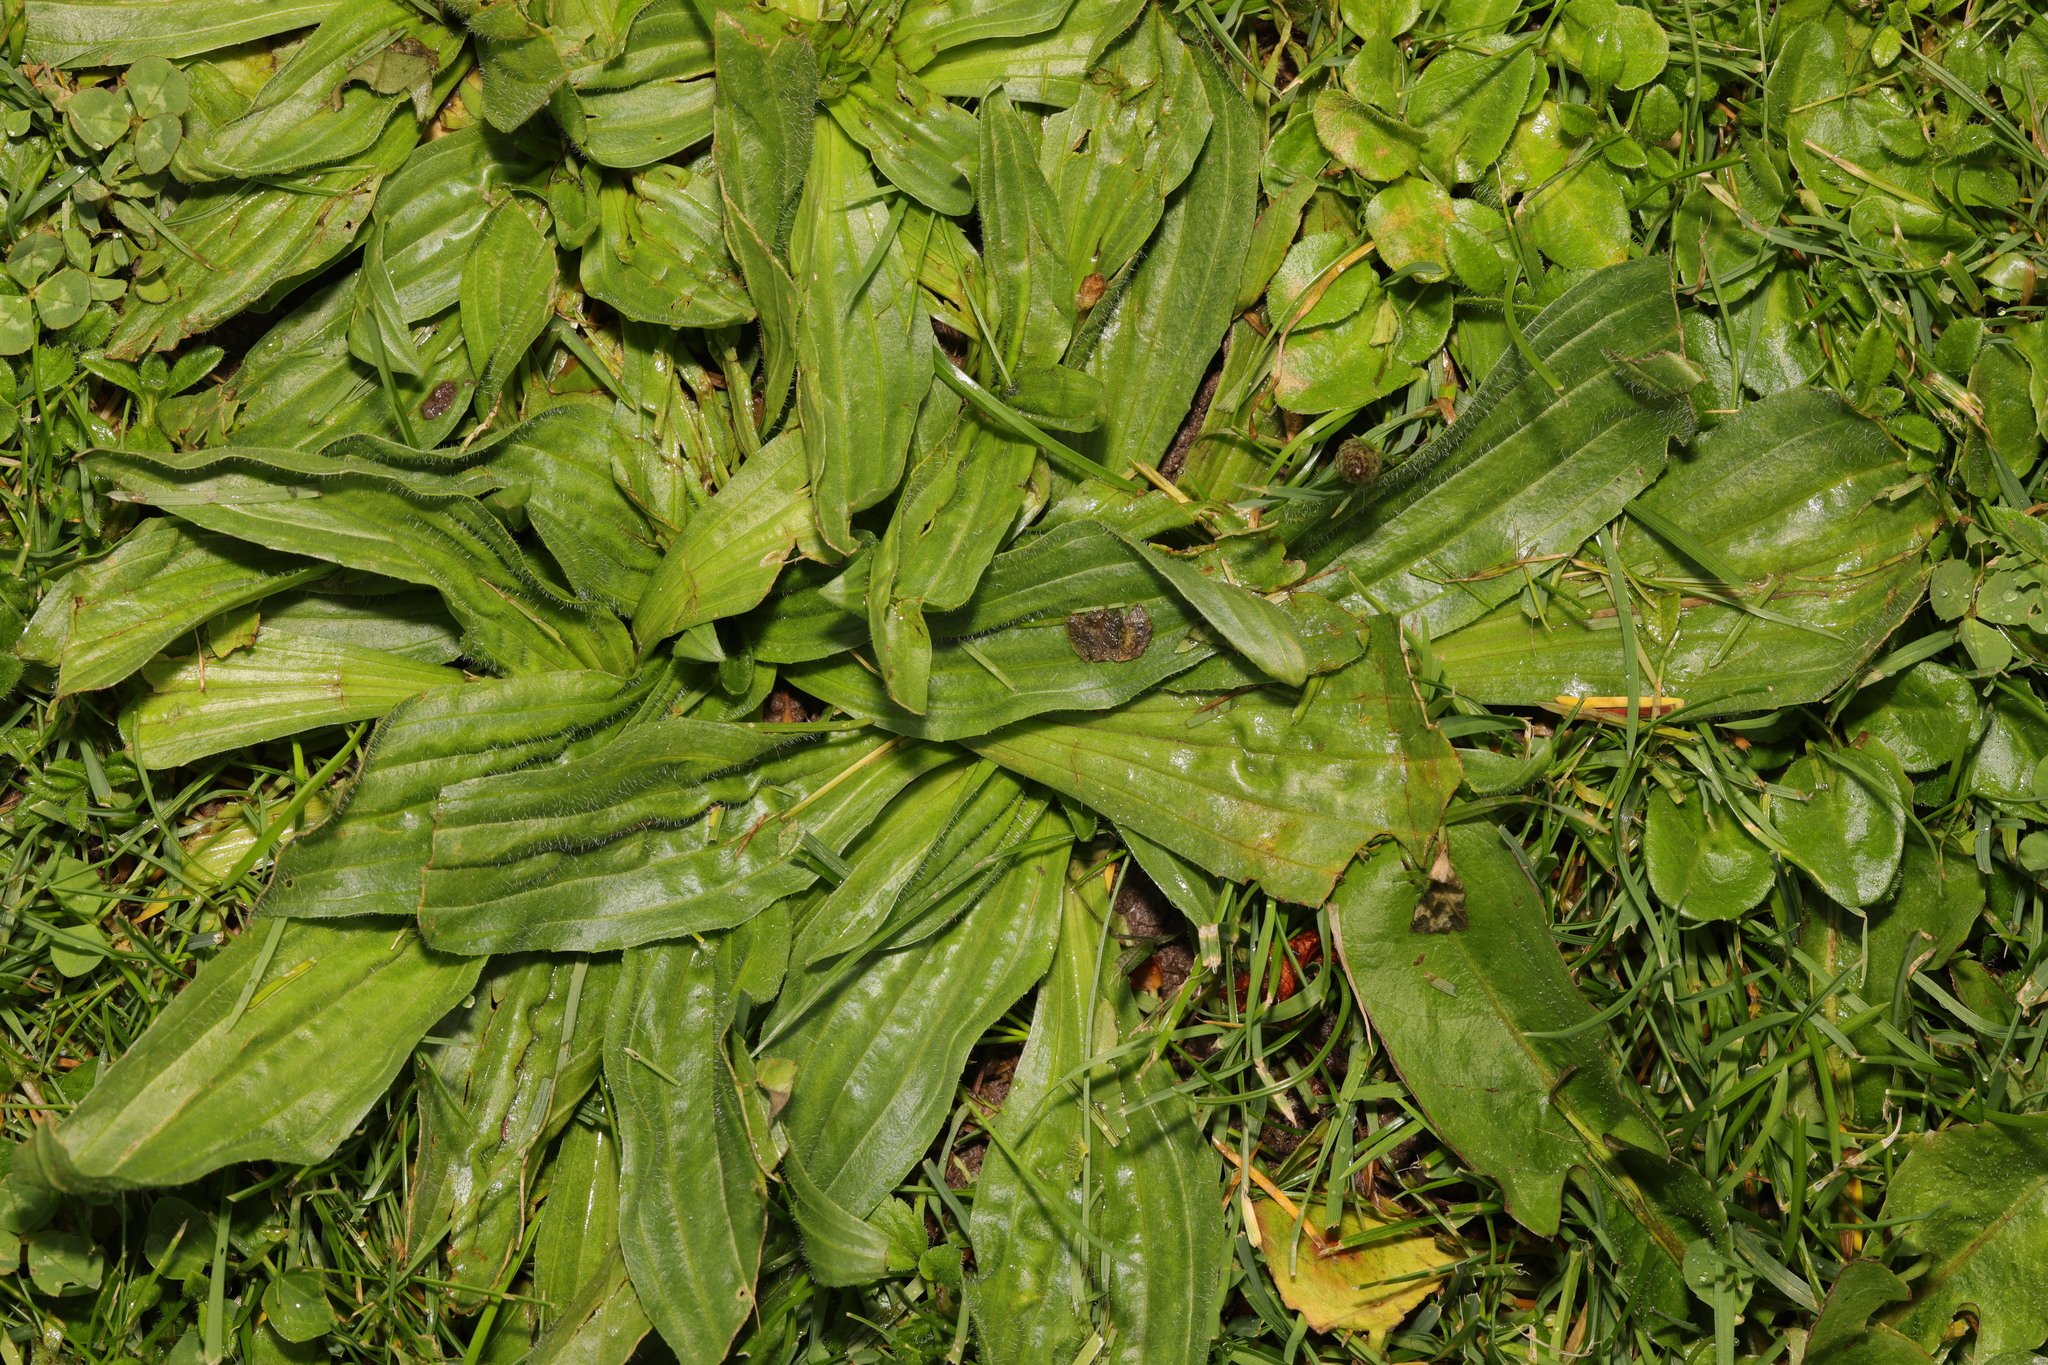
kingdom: Plantae
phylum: Tracheophyta
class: Magnoliopsida
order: Lamiales
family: Plantaginaceae
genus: Plantago
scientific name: Plantago lanceolata
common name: Ribwort plantain
